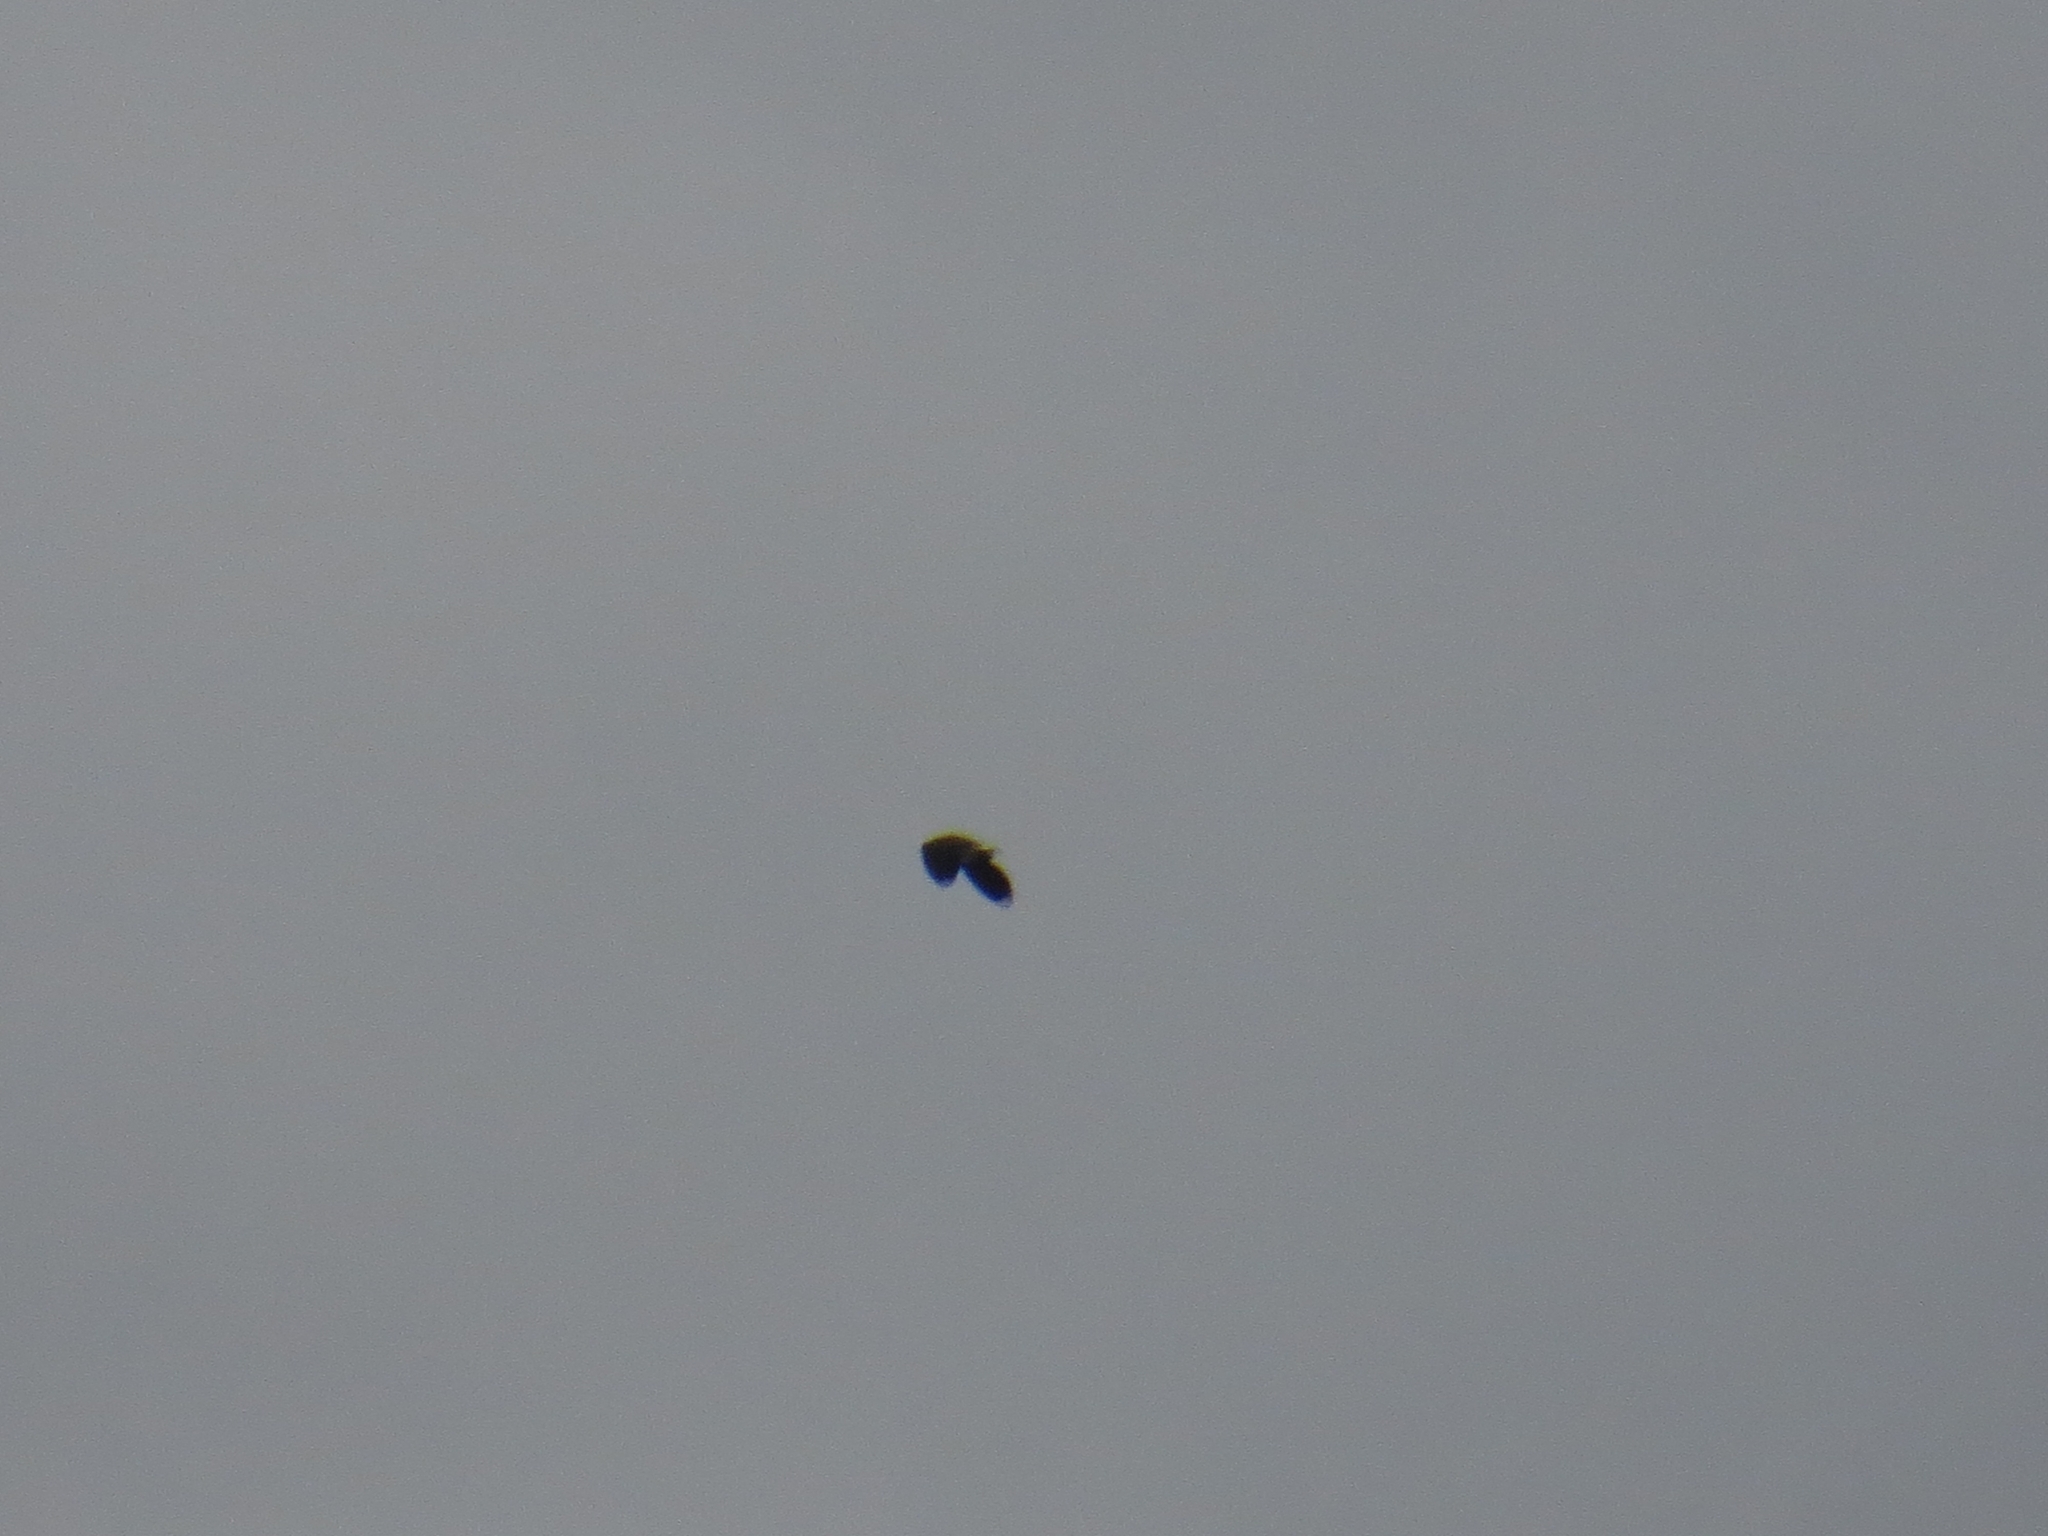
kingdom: Animalia
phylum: Chordata
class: Aves
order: Charadriiformes
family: Charadriidae
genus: Vanellus
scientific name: Vanellus vanellus
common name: Northern lapwing
